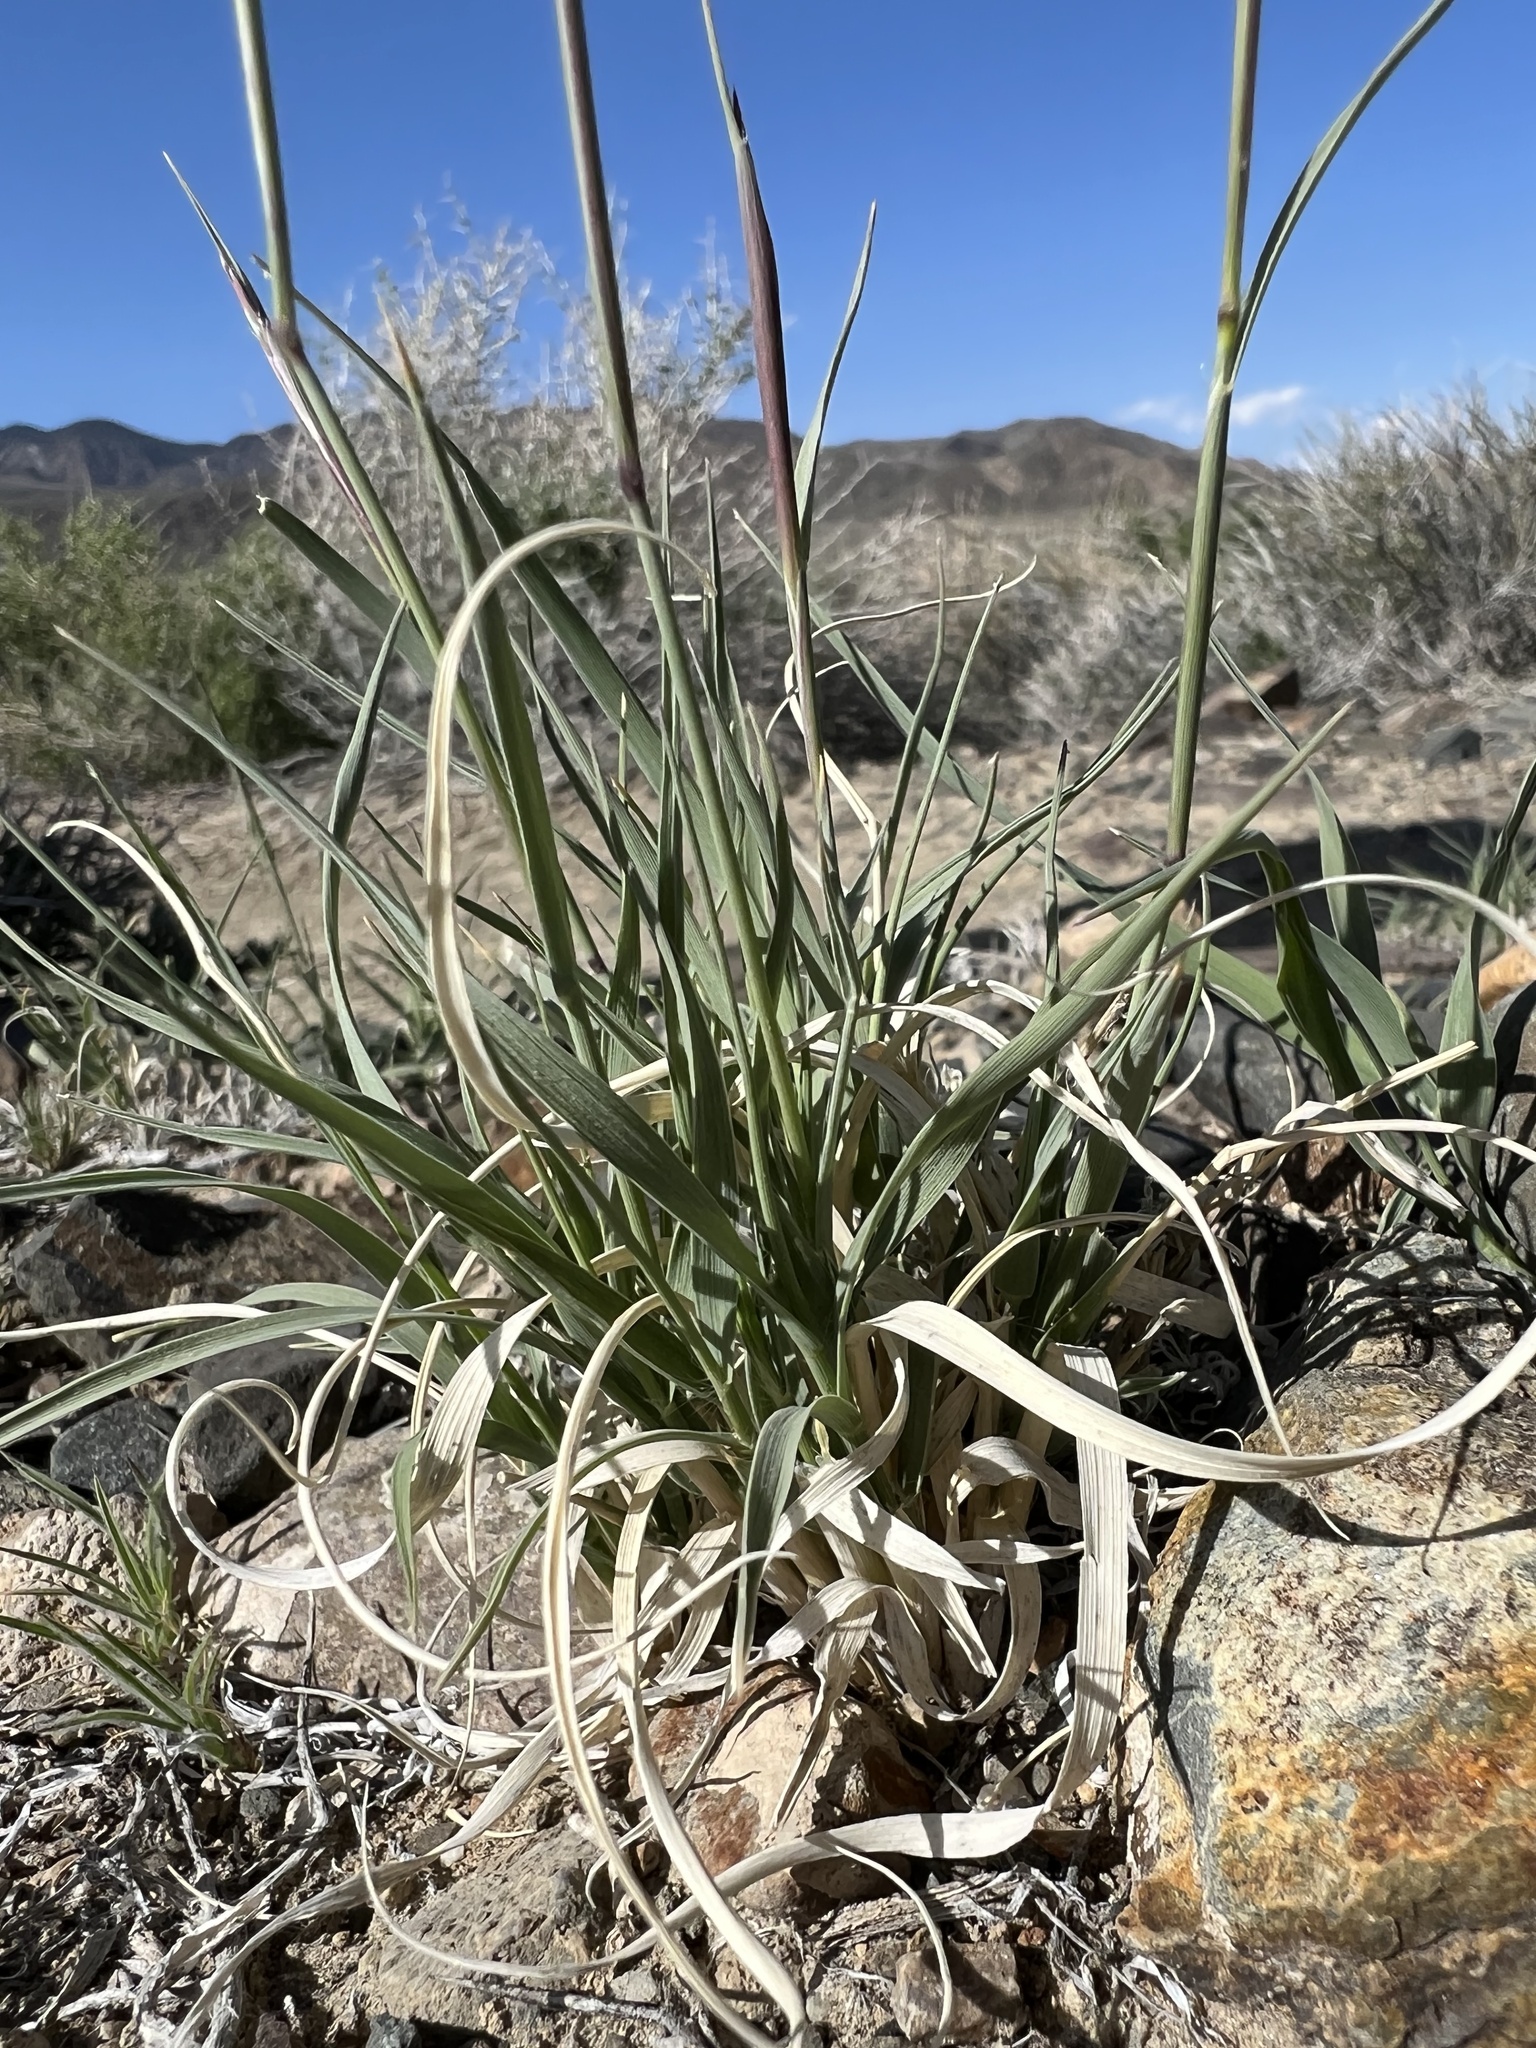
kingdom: Plantae
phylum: Tracheophyta
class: Liliopsida
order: Poales
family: Poaceae
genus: Hilaria
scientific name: Hilaria jamesii
